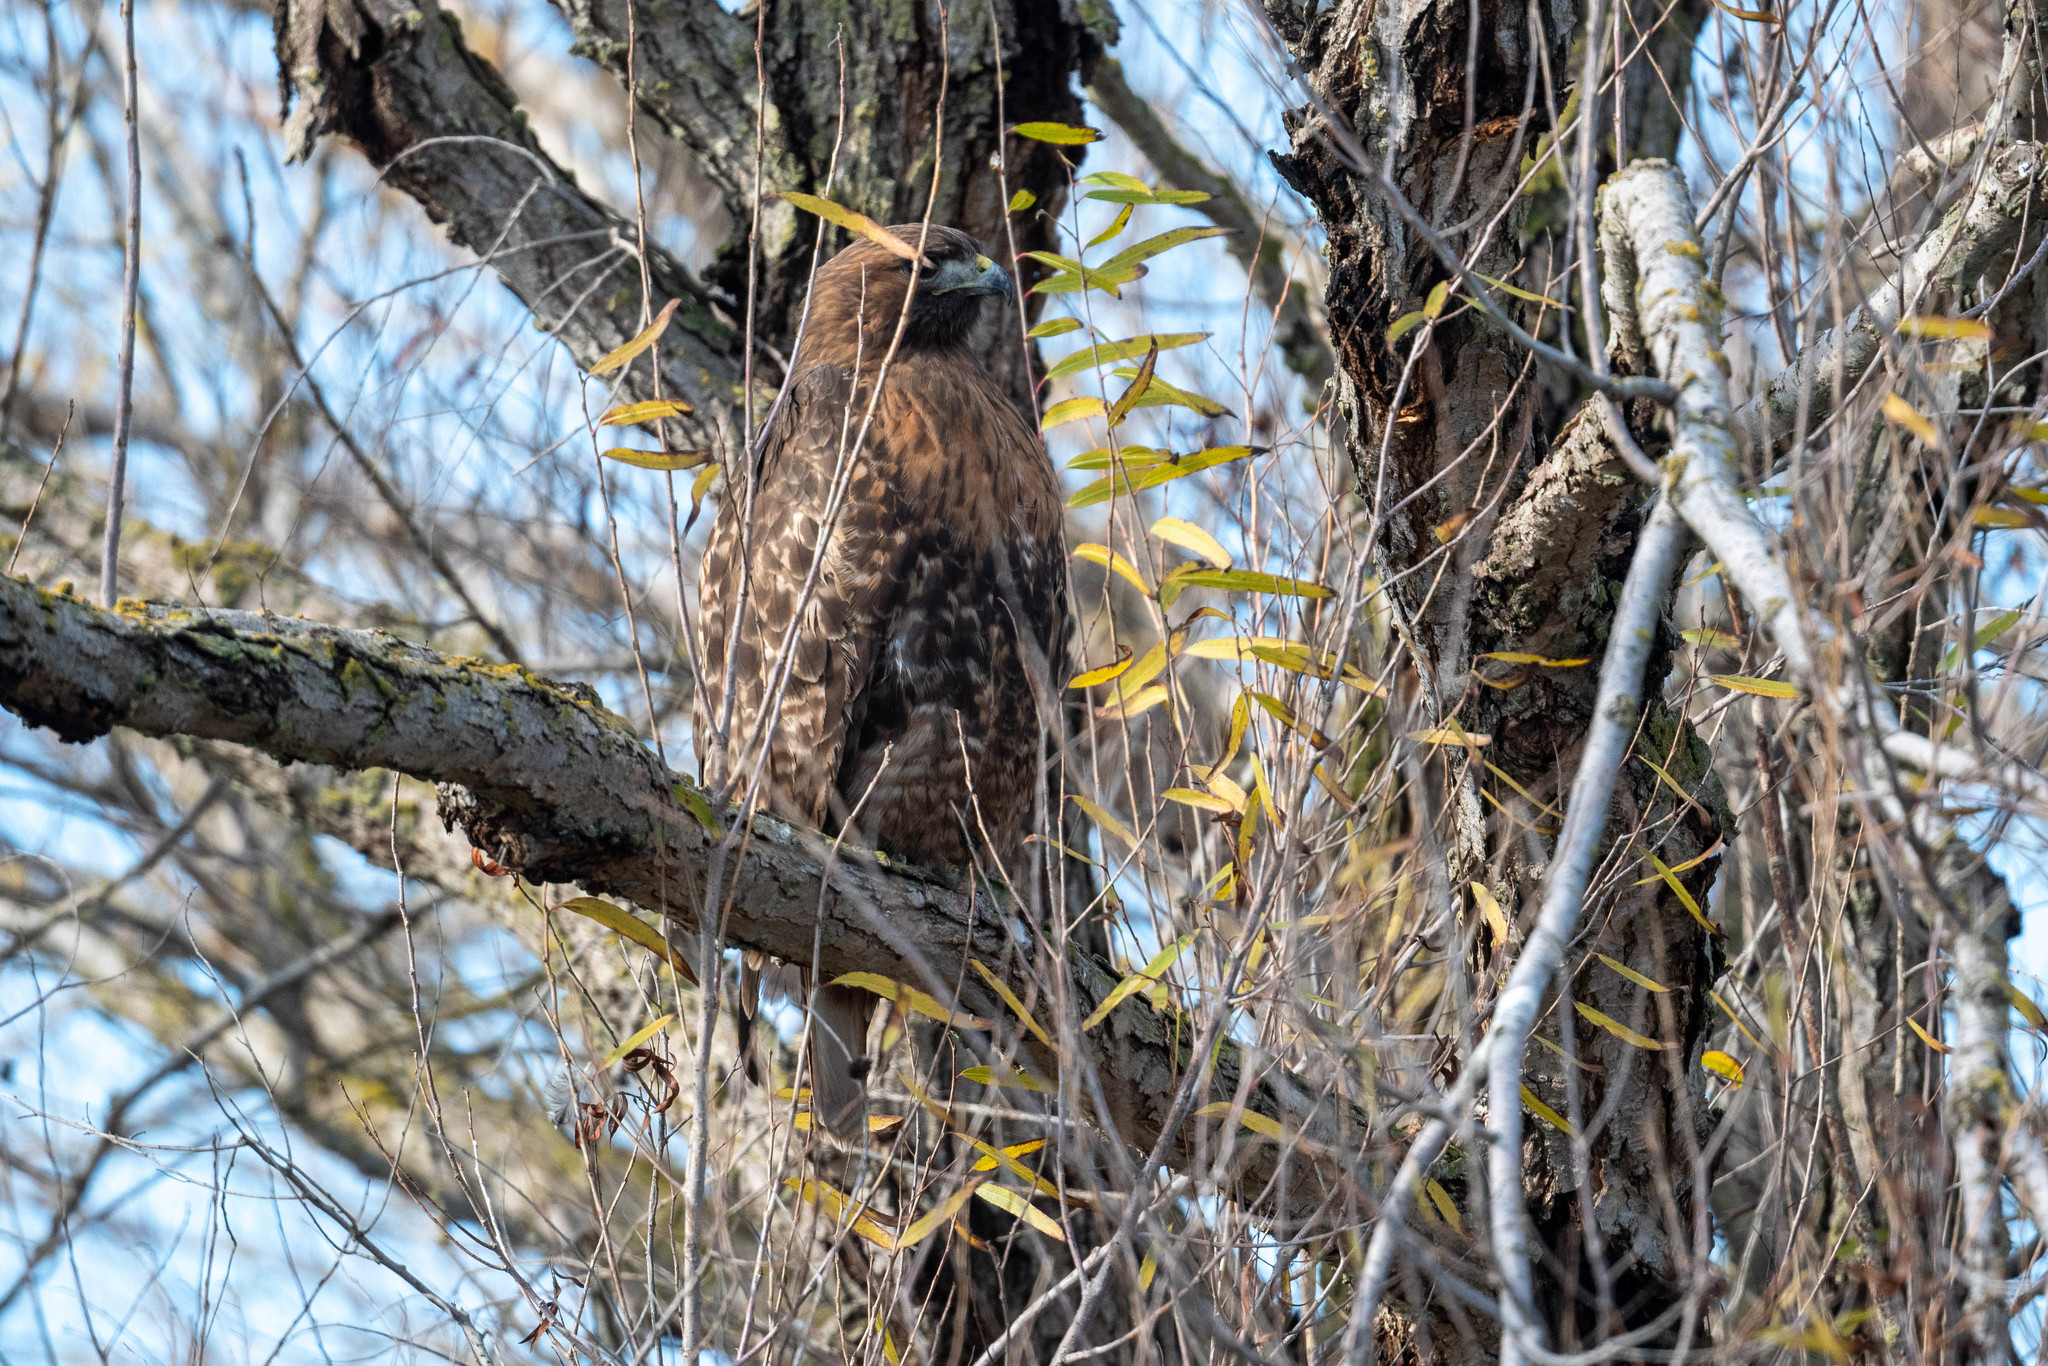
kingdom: Animalia
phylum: Chordata
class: Aves
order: Accipitriformes
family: Accipitridae
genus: Buteo
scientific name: Buteo jamaicensis
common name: Red-tailed hawk
